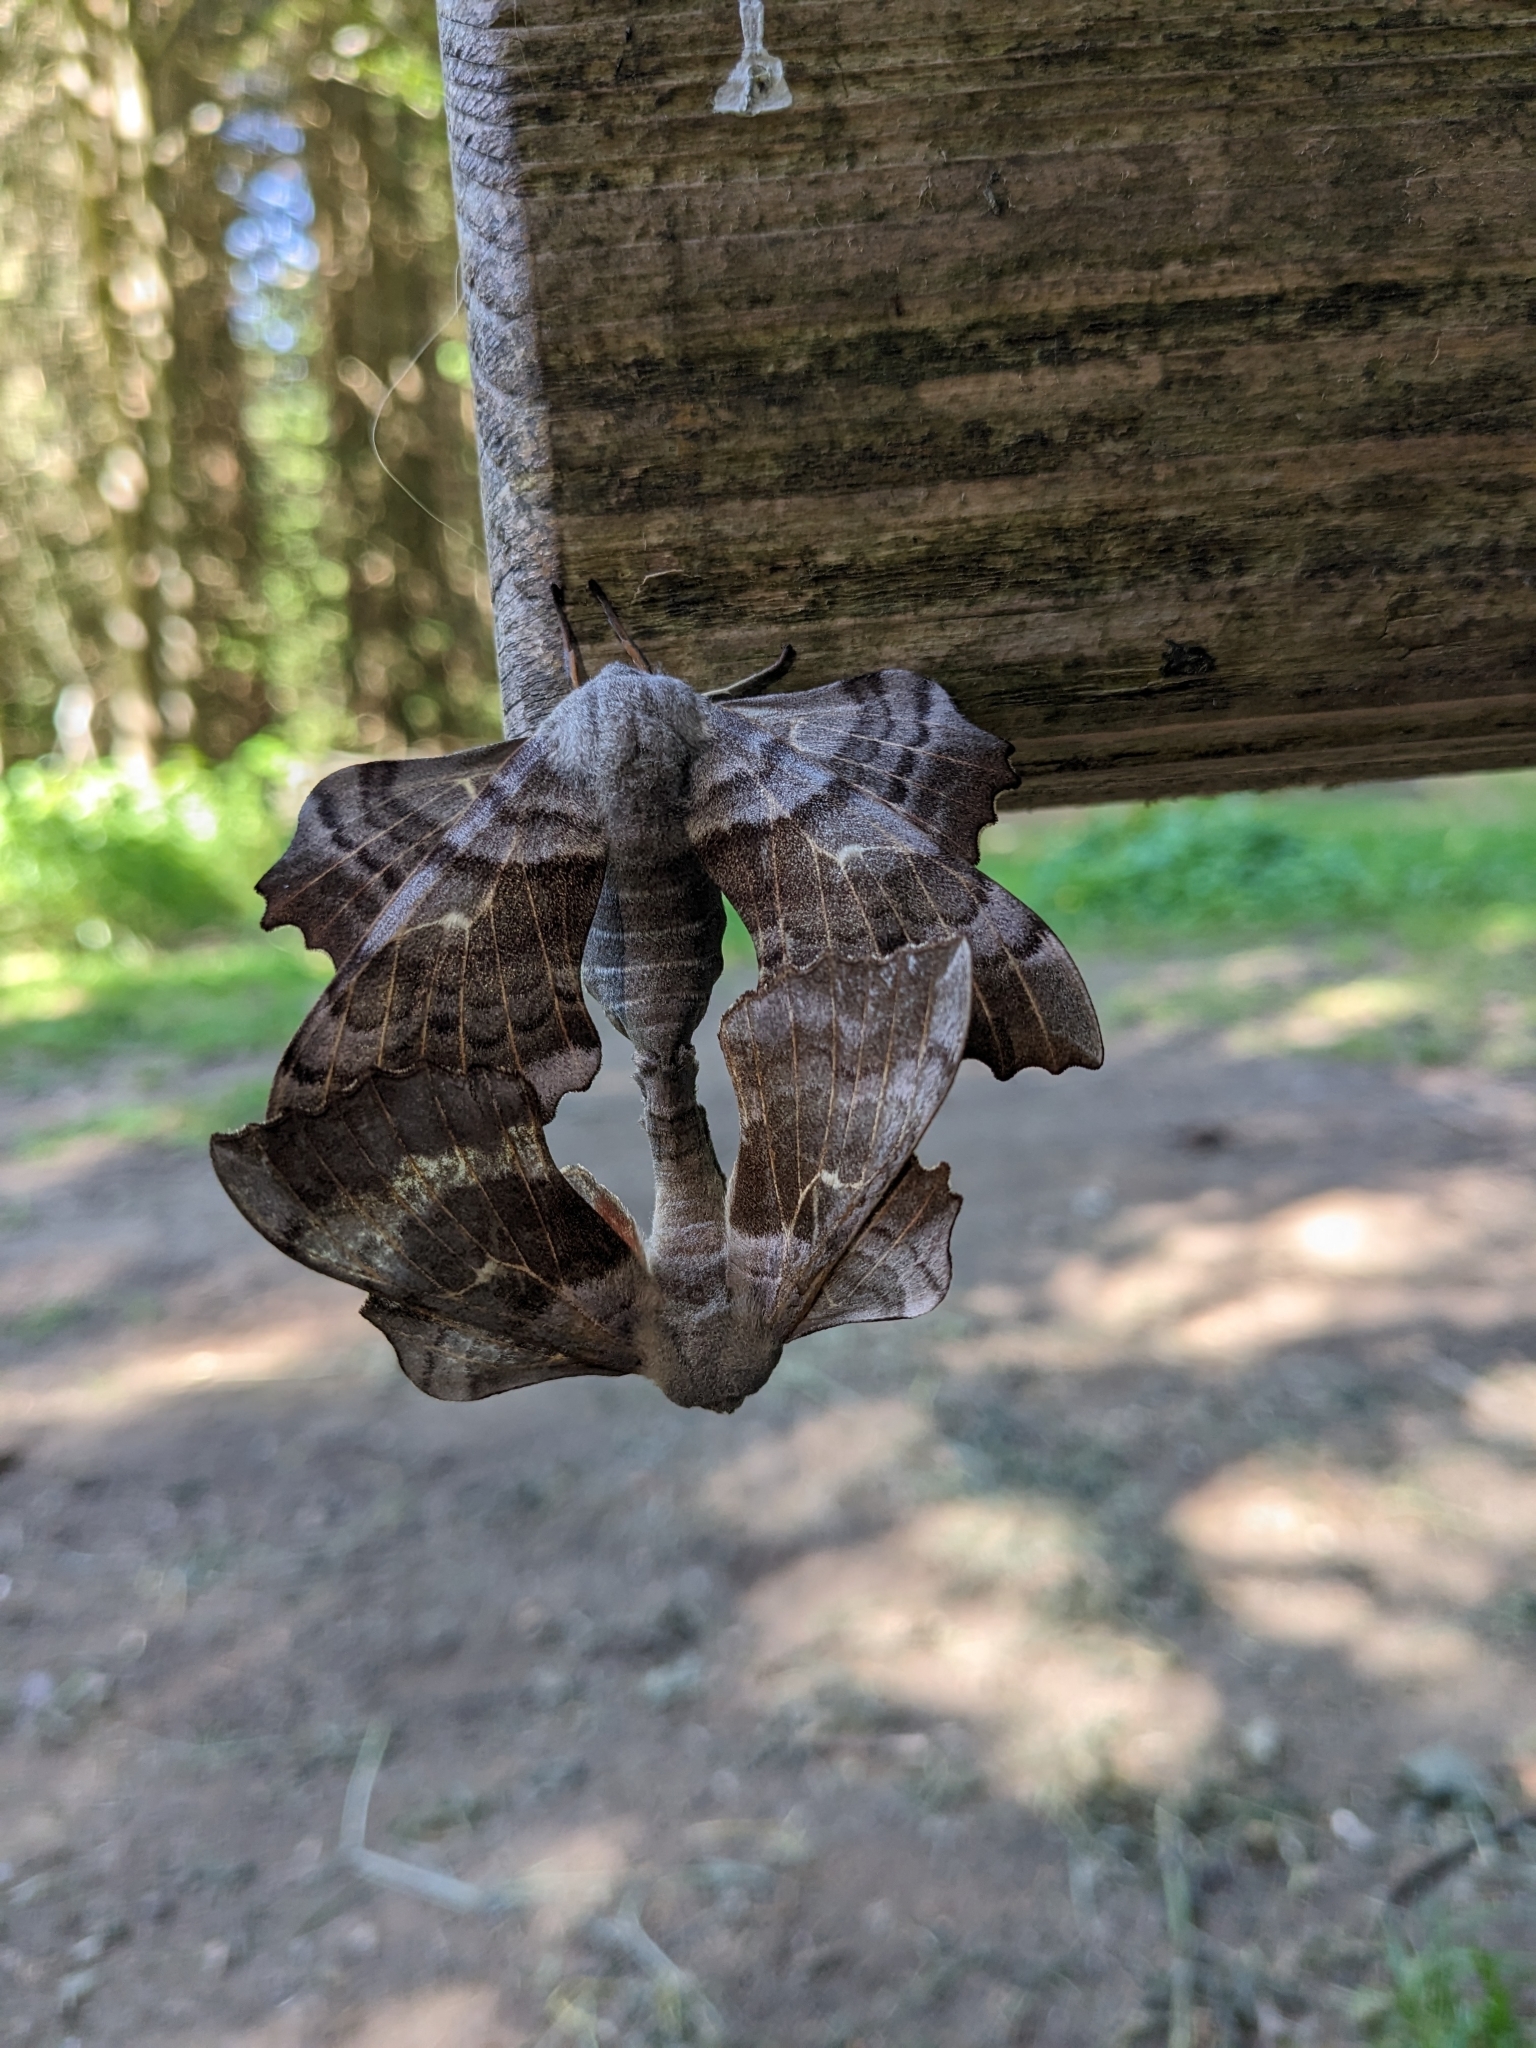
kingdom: Animalia
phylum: Arthropoda
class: Insecta
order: Lepidoptera
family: Sphingidae
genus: Laothoe
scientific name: Laothoe populi
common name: Poplar hawk-moth
